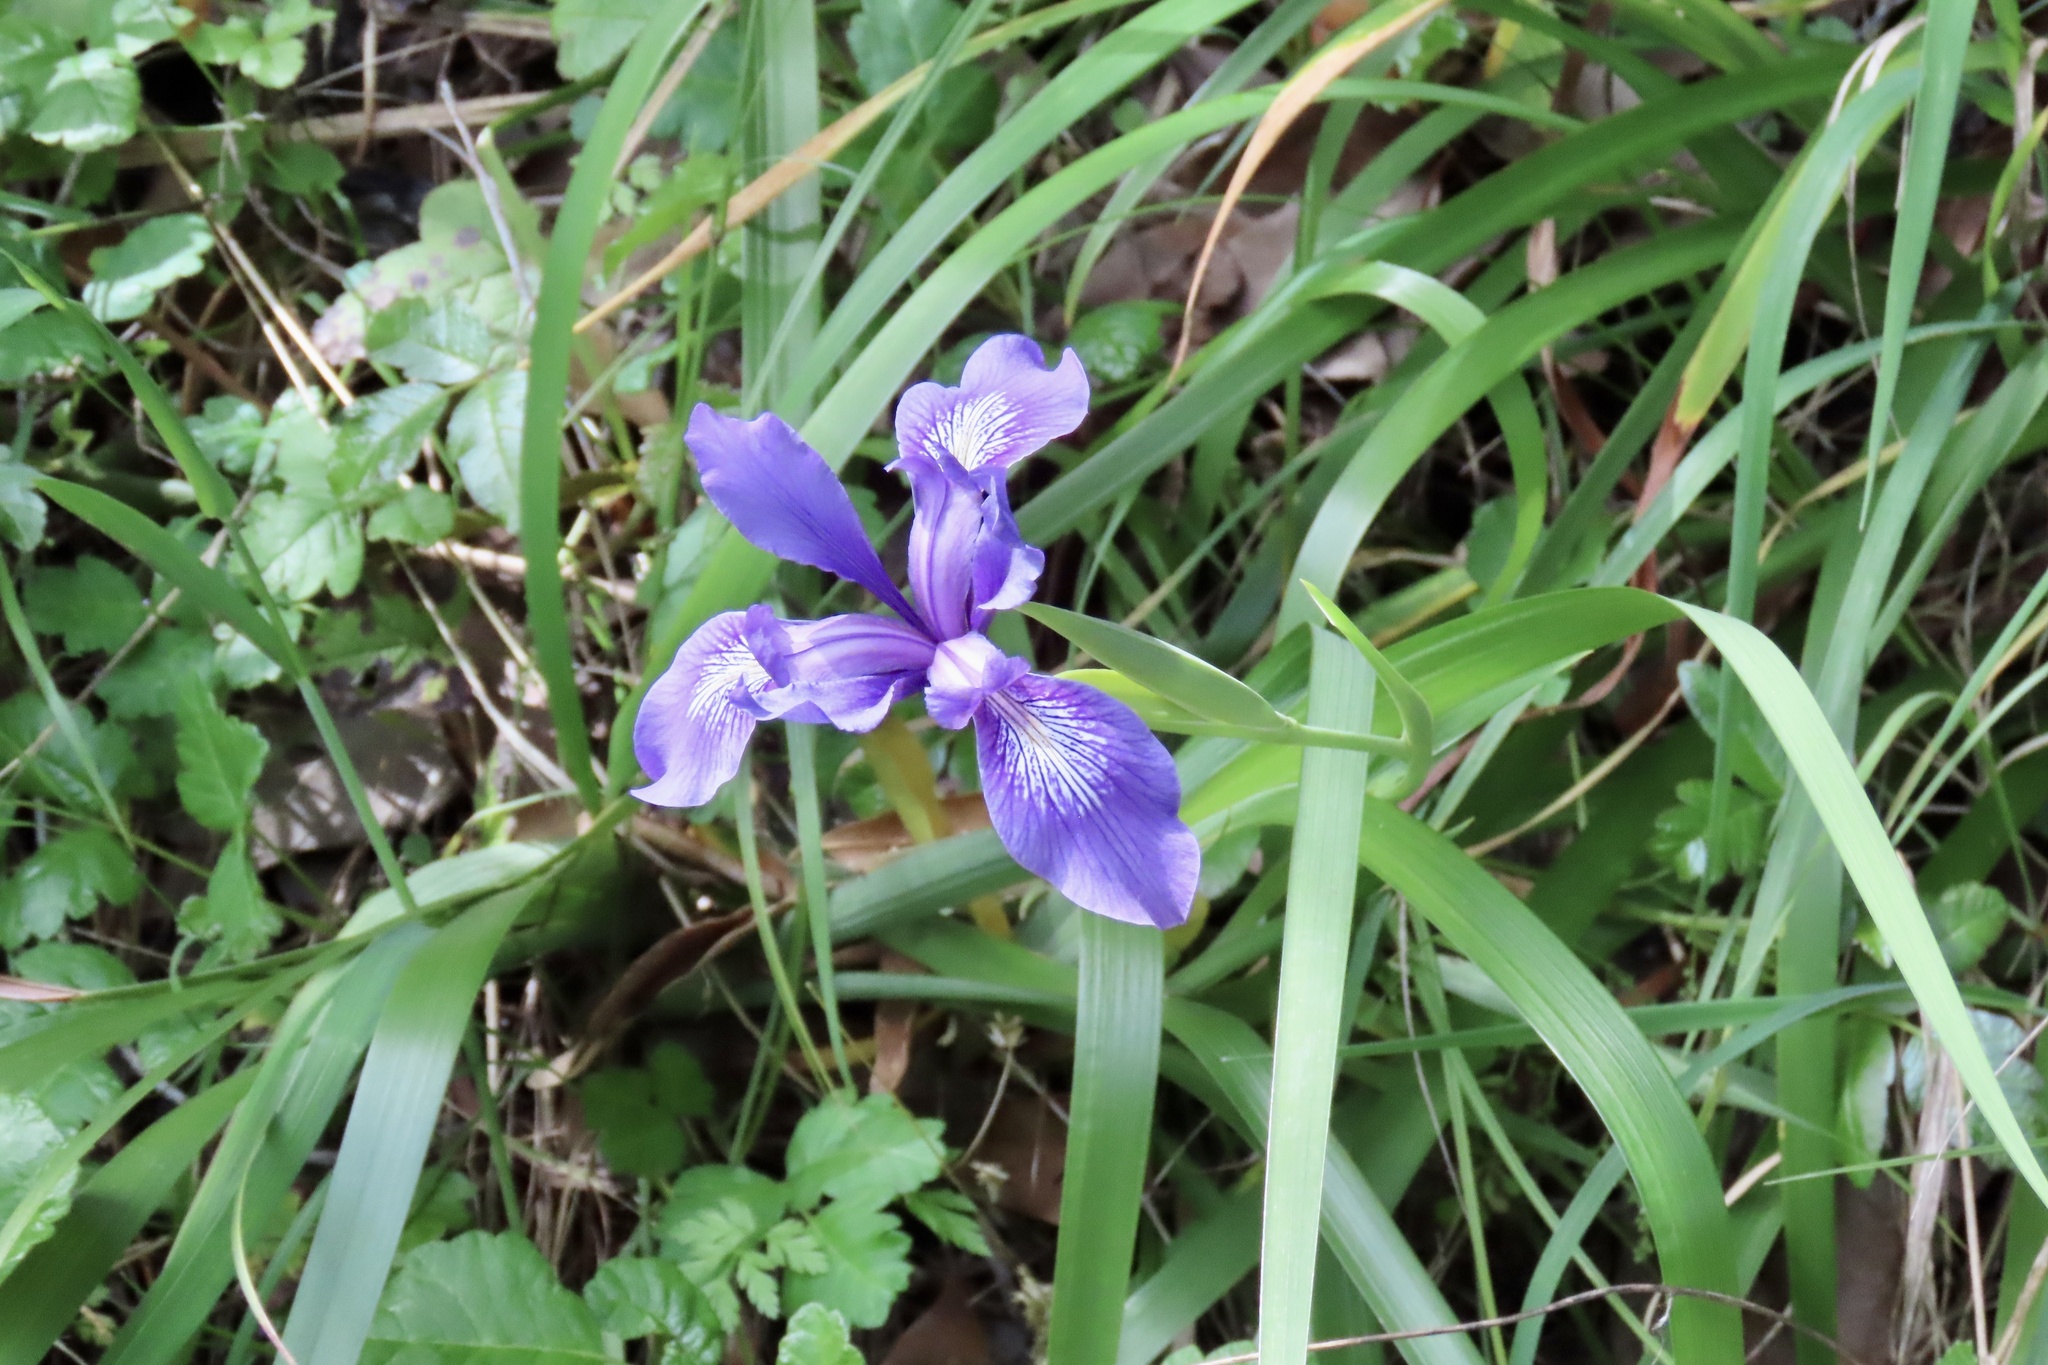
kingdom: Plantae
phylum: Tracheophyta
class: Liliopsida
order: Asparagales
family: Iridaceae
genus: Iris
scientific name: Iris douglasiana
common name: Marin iris
